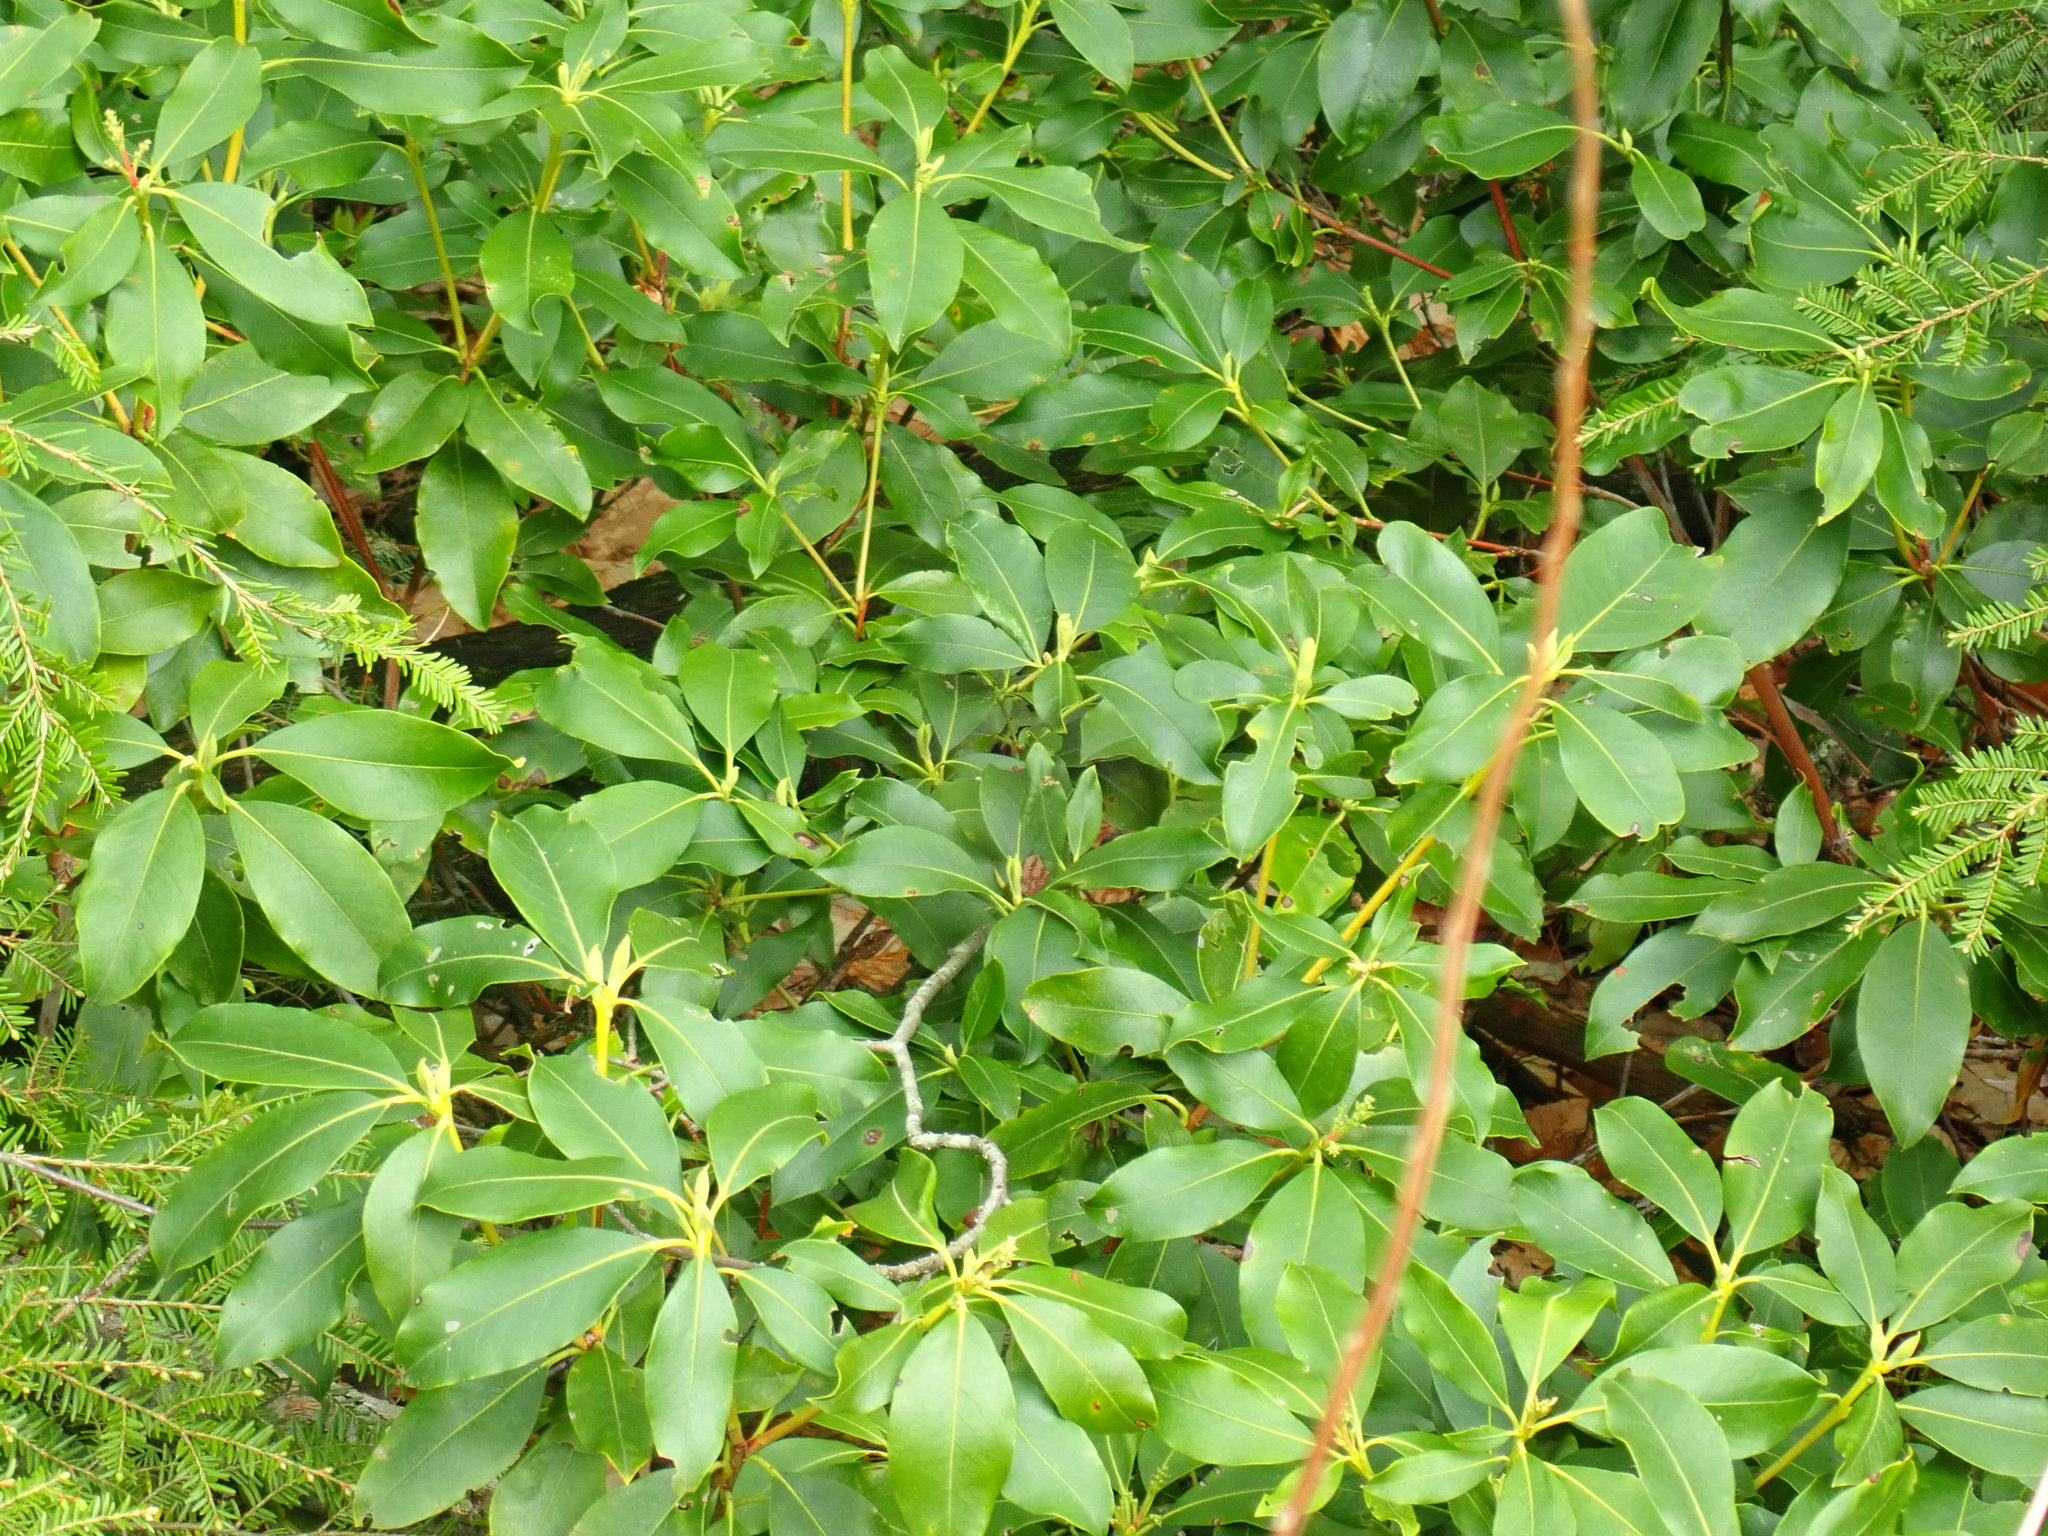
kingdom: Plantae
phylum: Tracheophyta
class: Magnoliopsida
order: Ericales
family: Ericaceae
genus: Kalmia
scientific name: Kalmia latifolia
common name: Mountain-laurel
